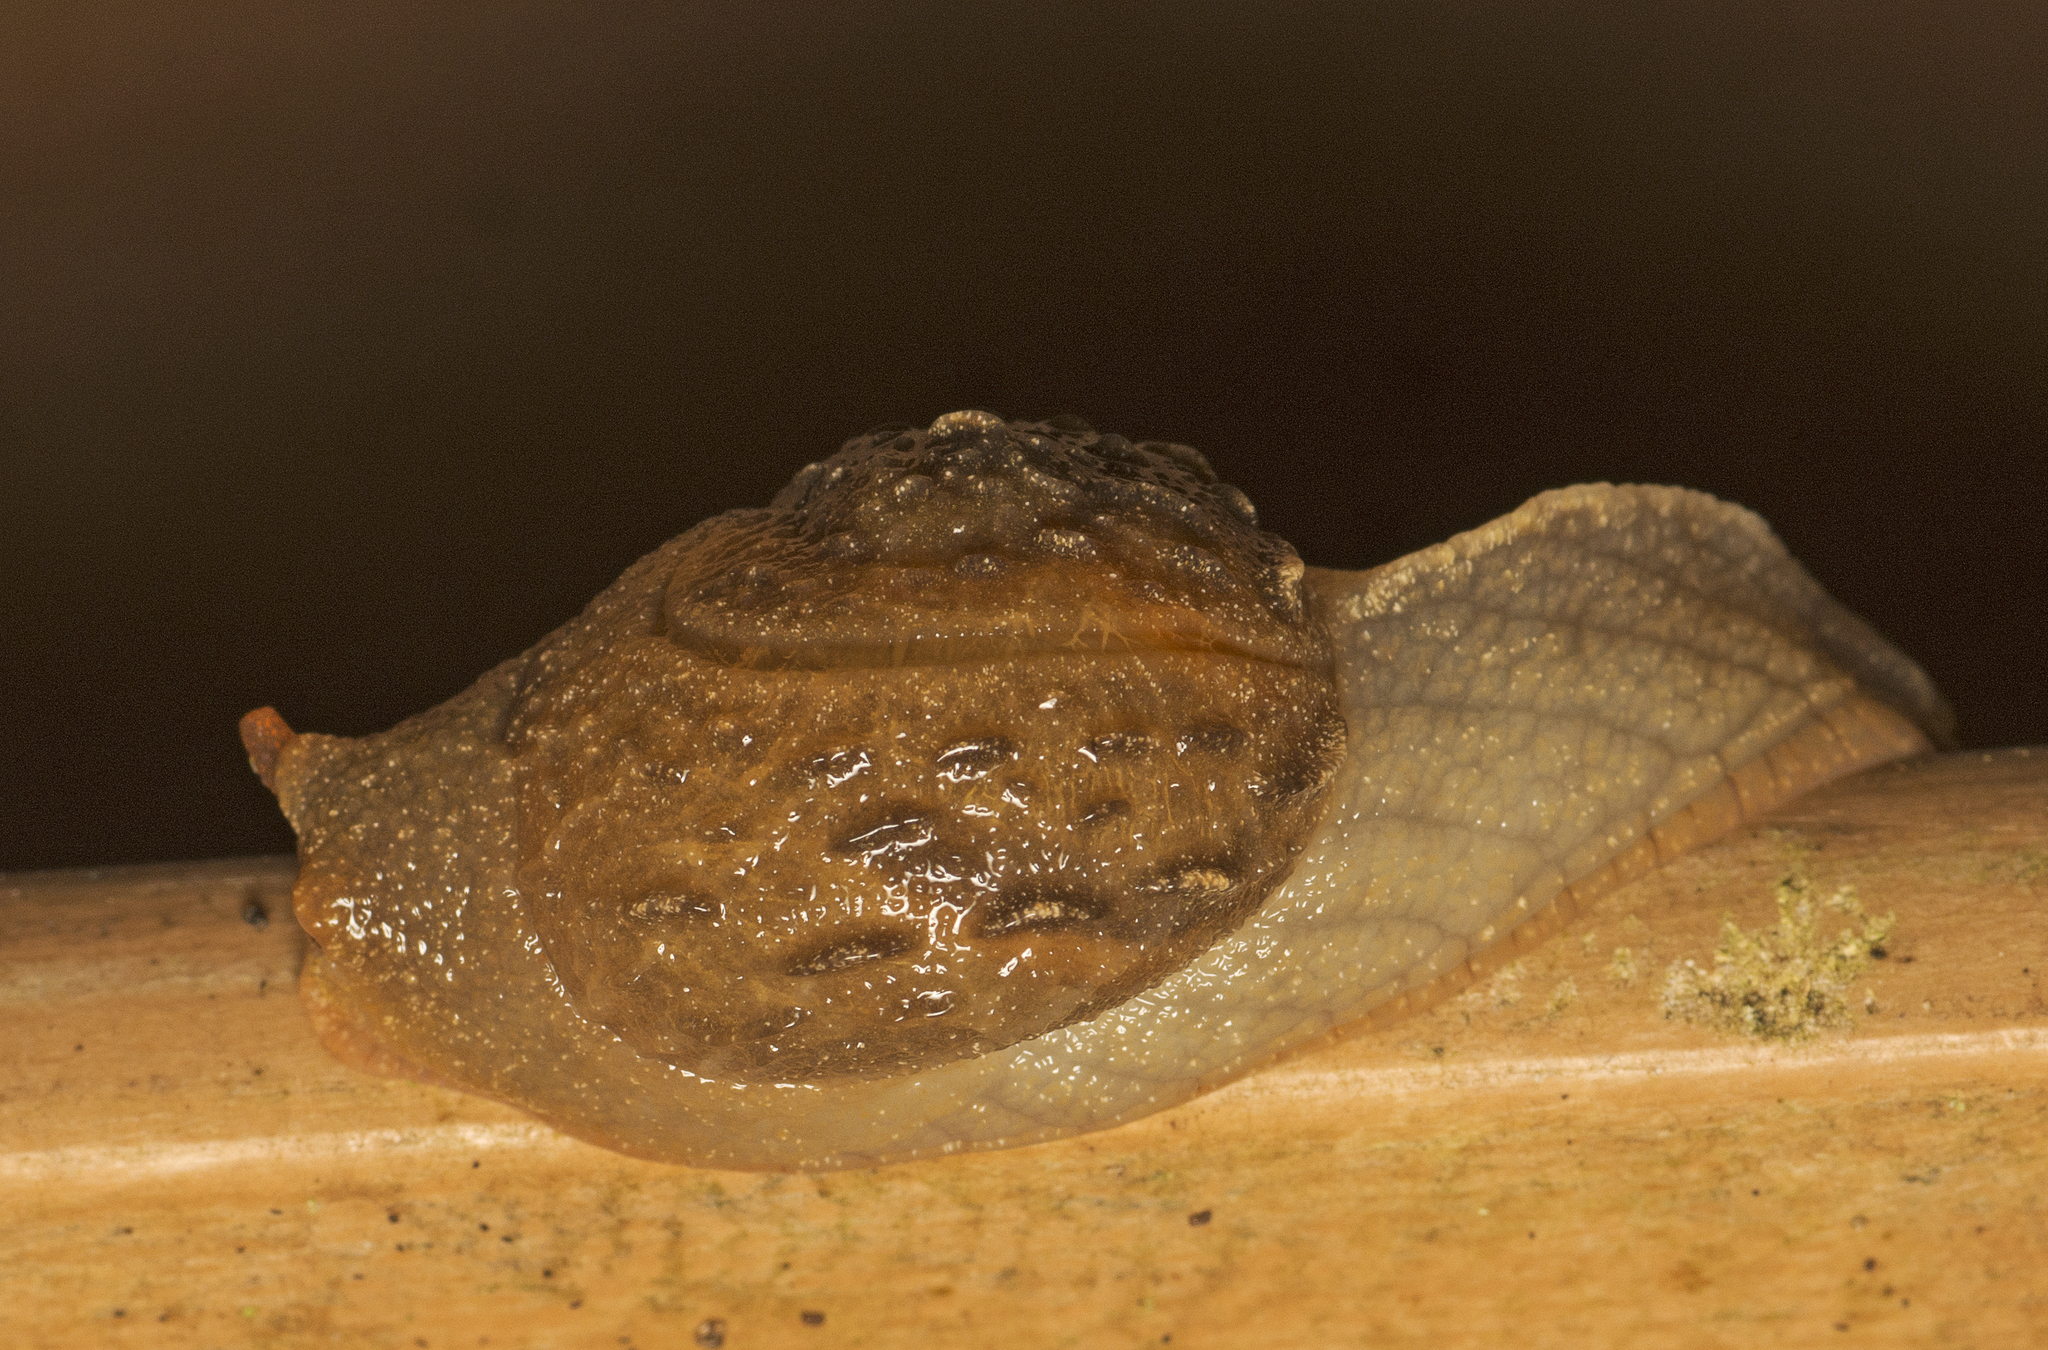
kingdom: Animalia
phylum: Mollusca
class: Gastropoda
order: Stylommatophora
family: Helicarionidae
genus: Fastosarion
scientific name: Fastosarion brazieri
